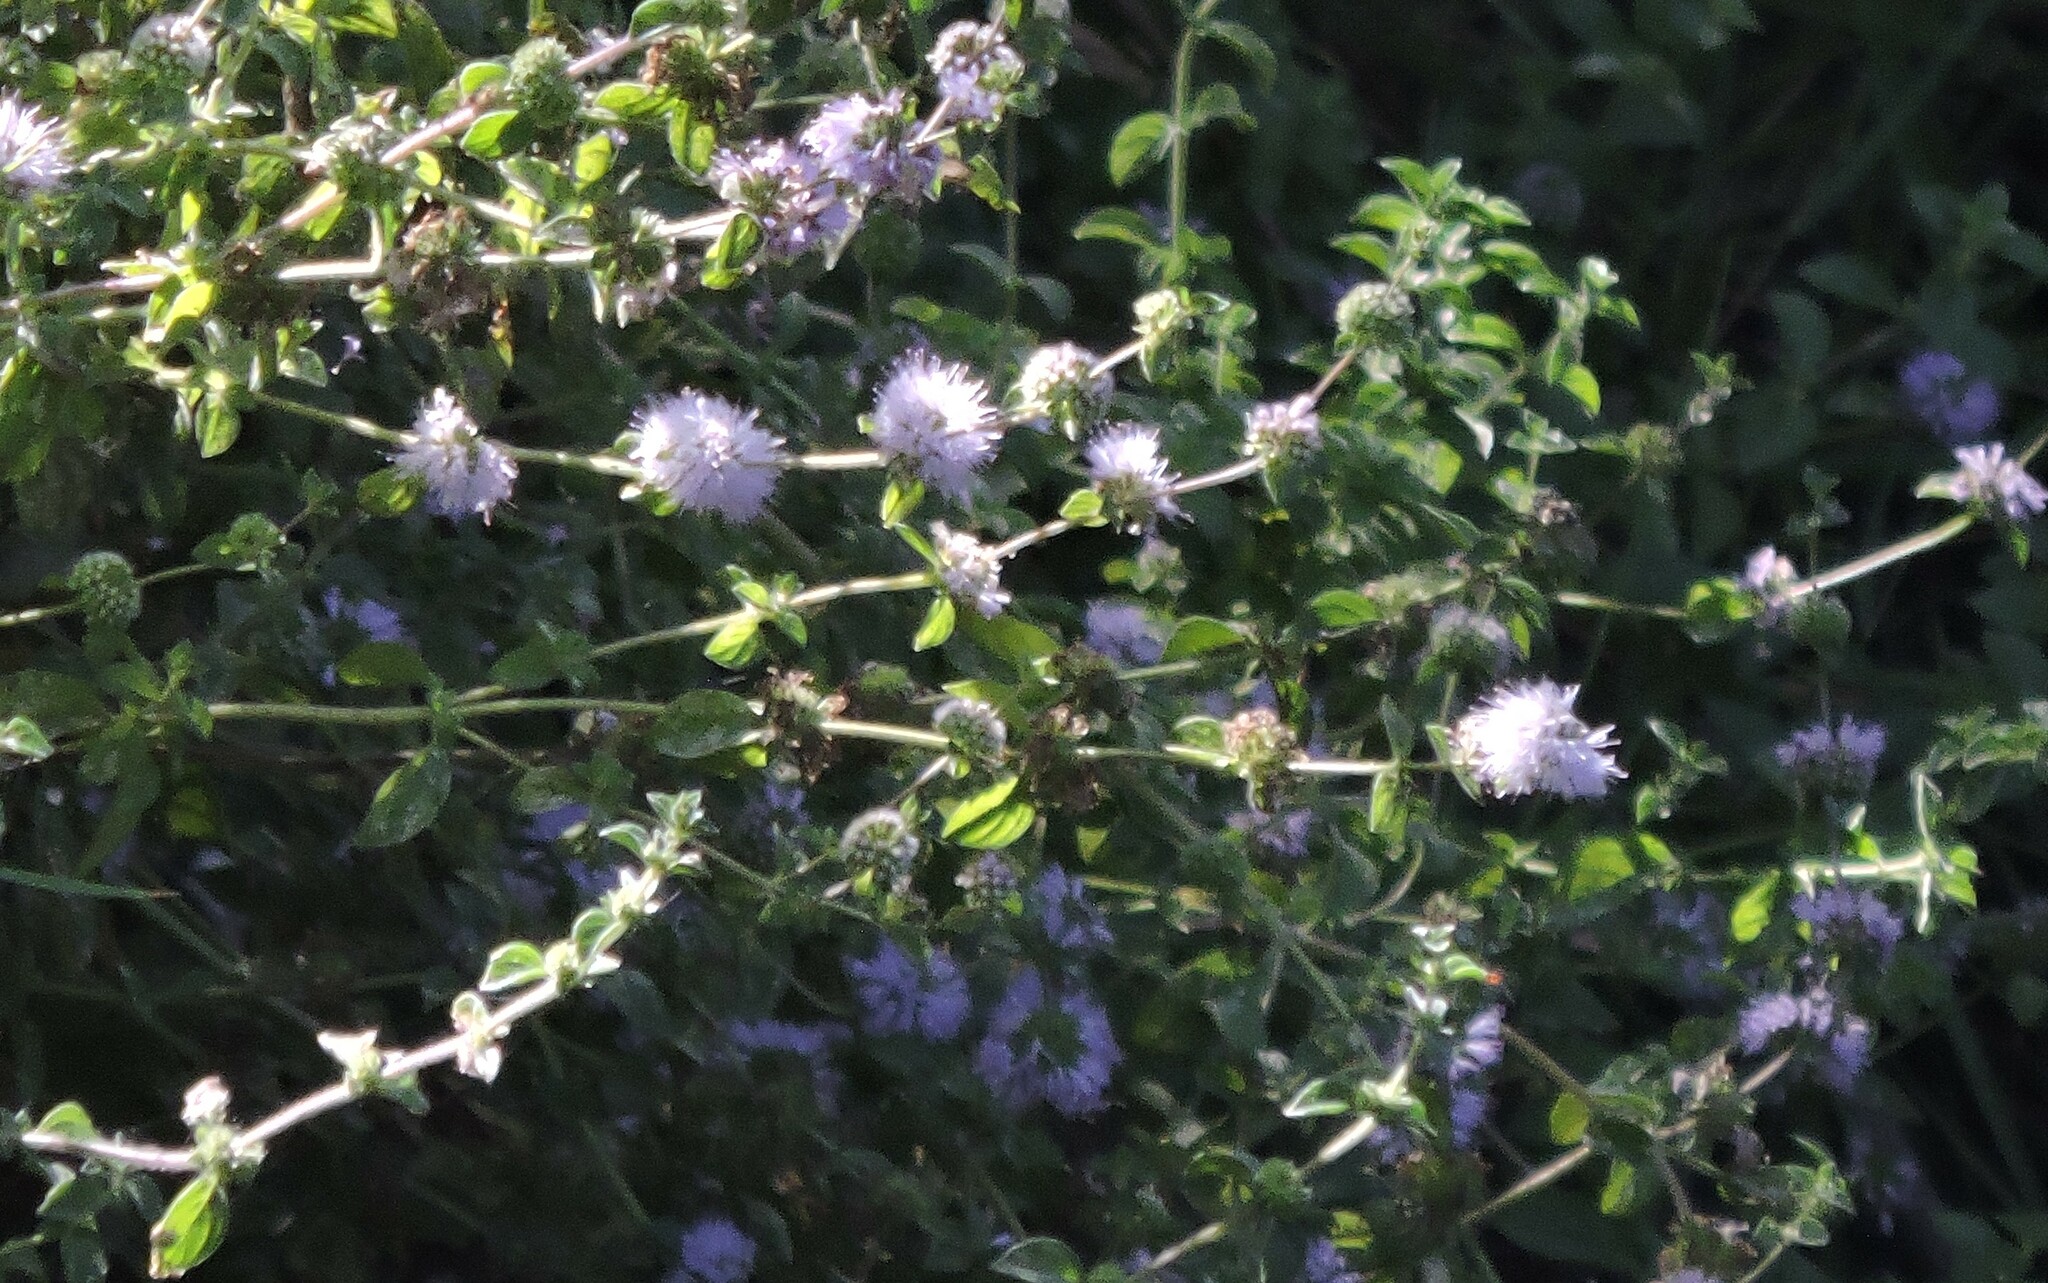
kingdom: Plantae
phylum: Tracheophyta
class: Magnoliopsida
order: Lamiales
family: Lamiaceae
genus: Mentha
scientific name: Mentha pulegium
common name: Pennyroyal
